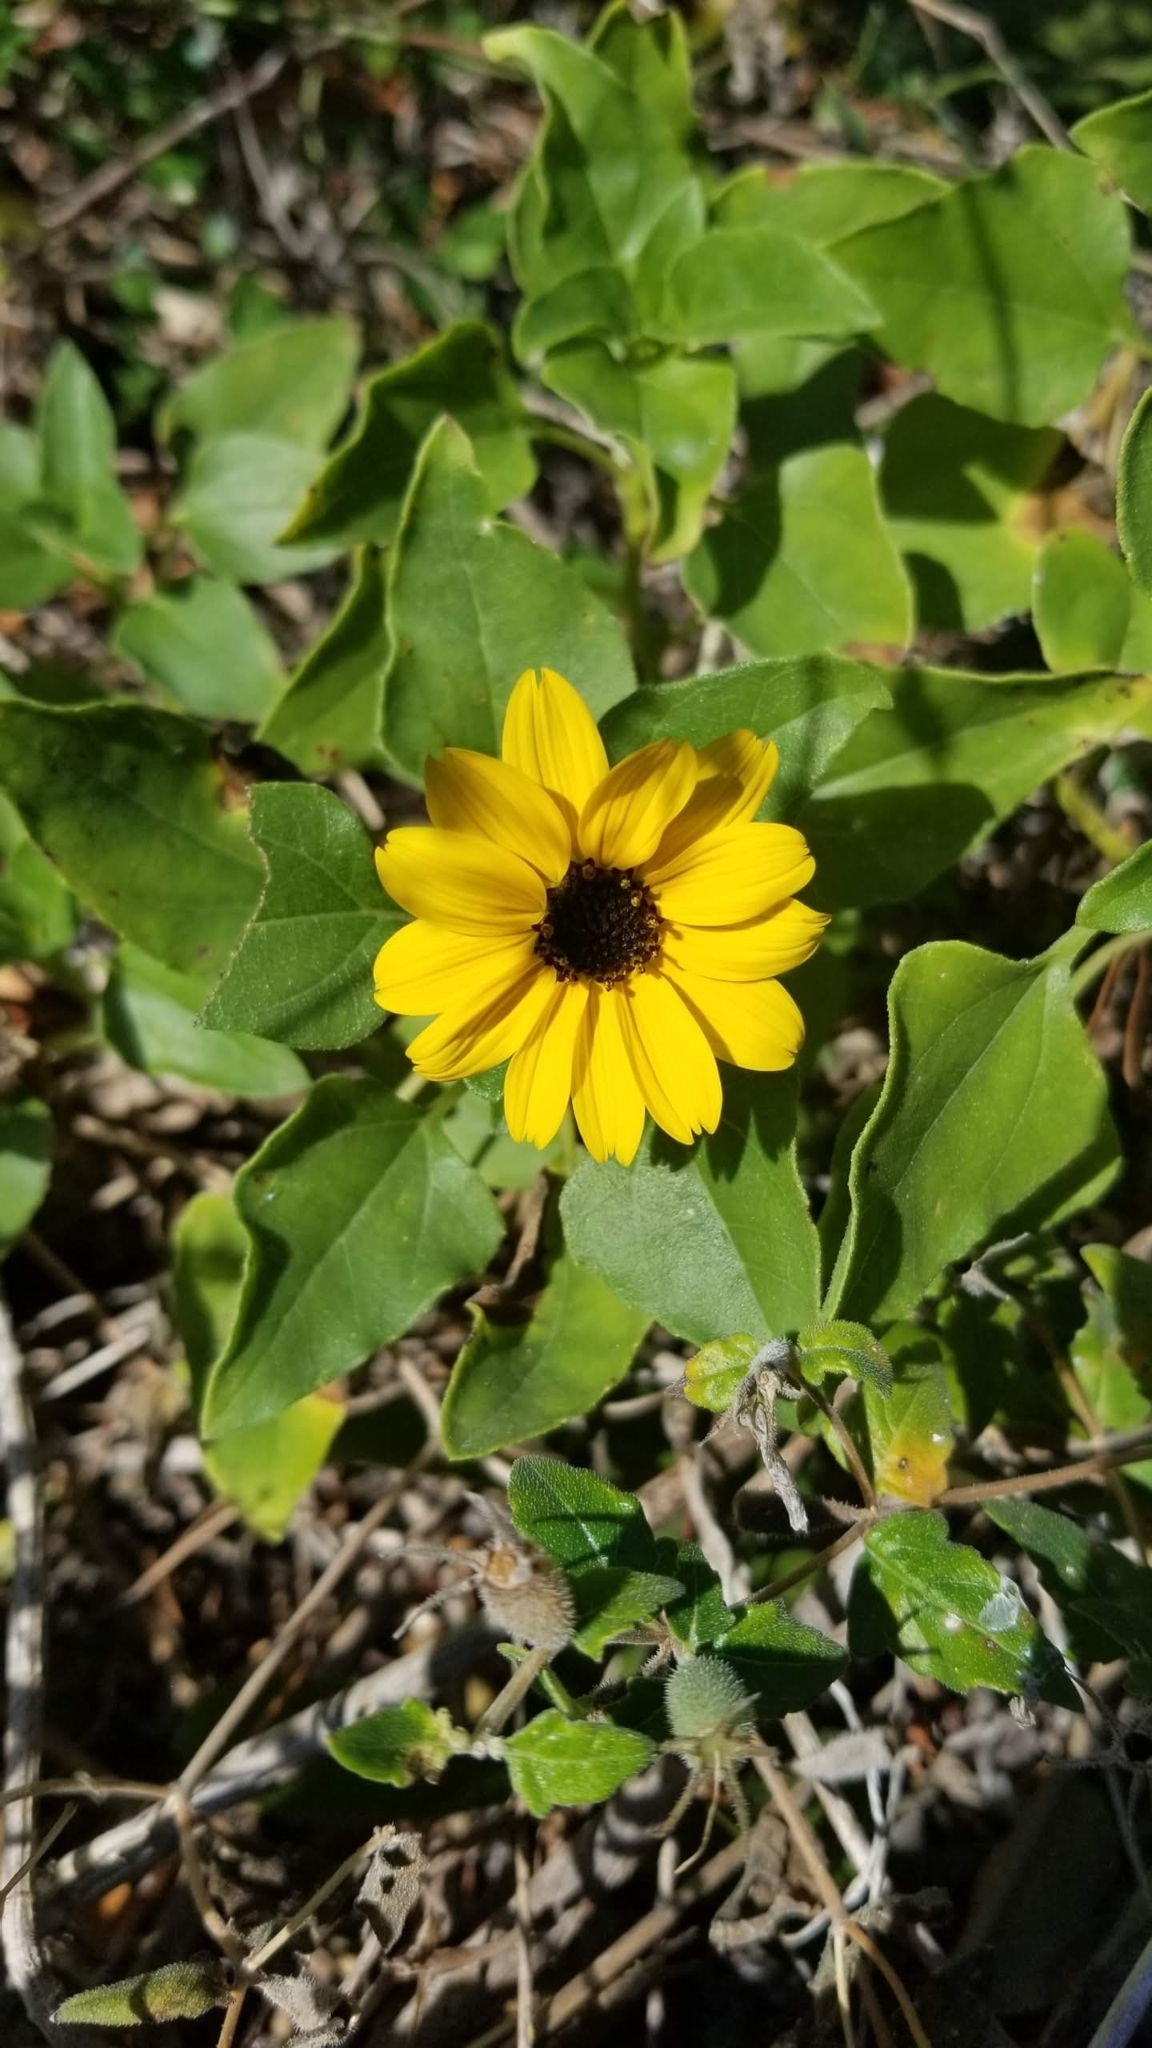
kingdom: Plantae
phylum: Tracheophyta
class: Magnoliopsida
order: Asterales
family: Asteraceae
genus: Helianthus
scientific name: Helianthus debilis
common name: Weak sunflower
